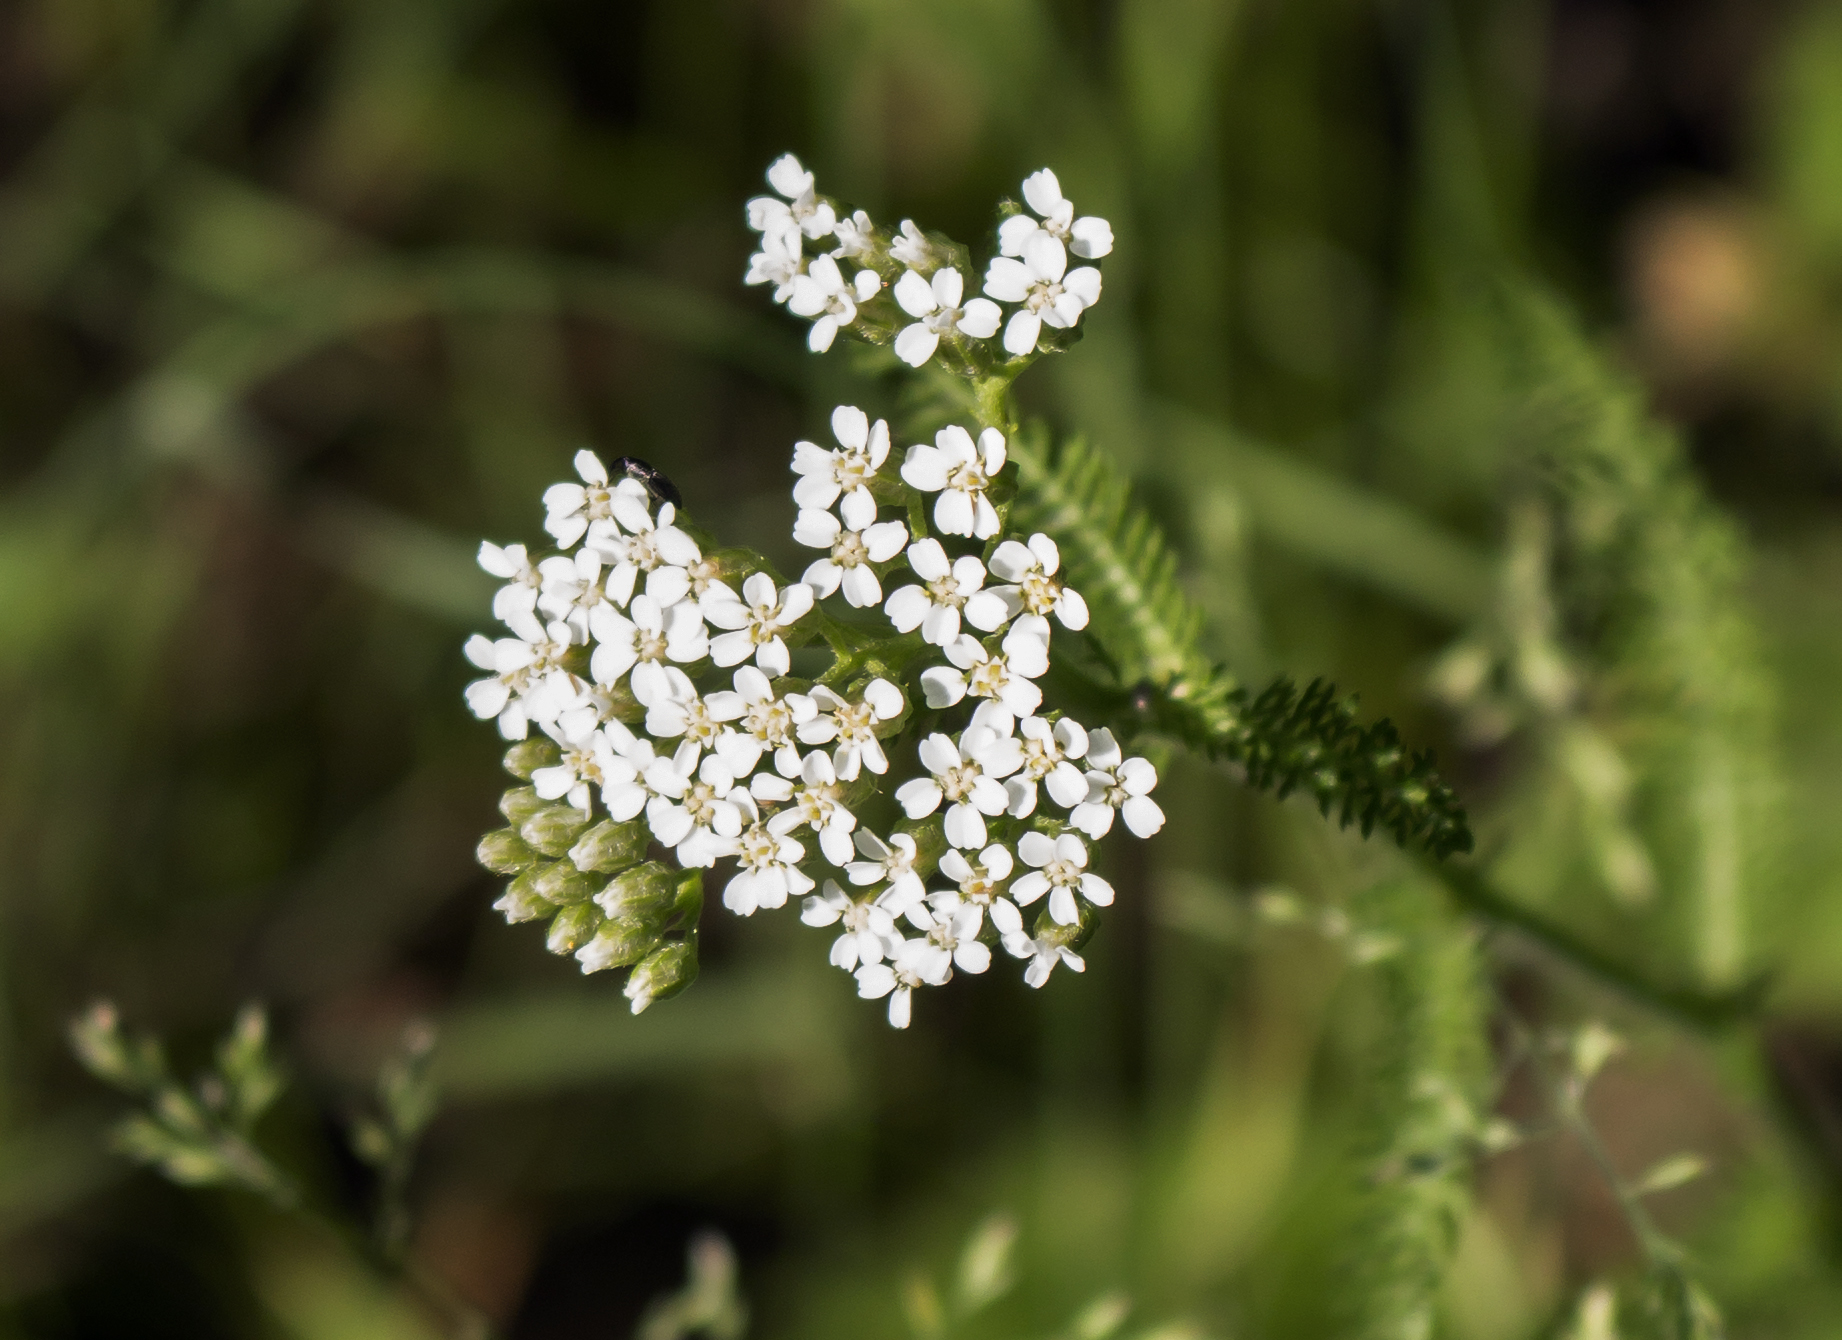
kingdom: Plantae
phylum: Tracheophyta
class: Magnoliopsida
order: Asterales
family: Asteraceae
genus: Achillea
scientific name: Achillea millefolium
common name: Yarrow
